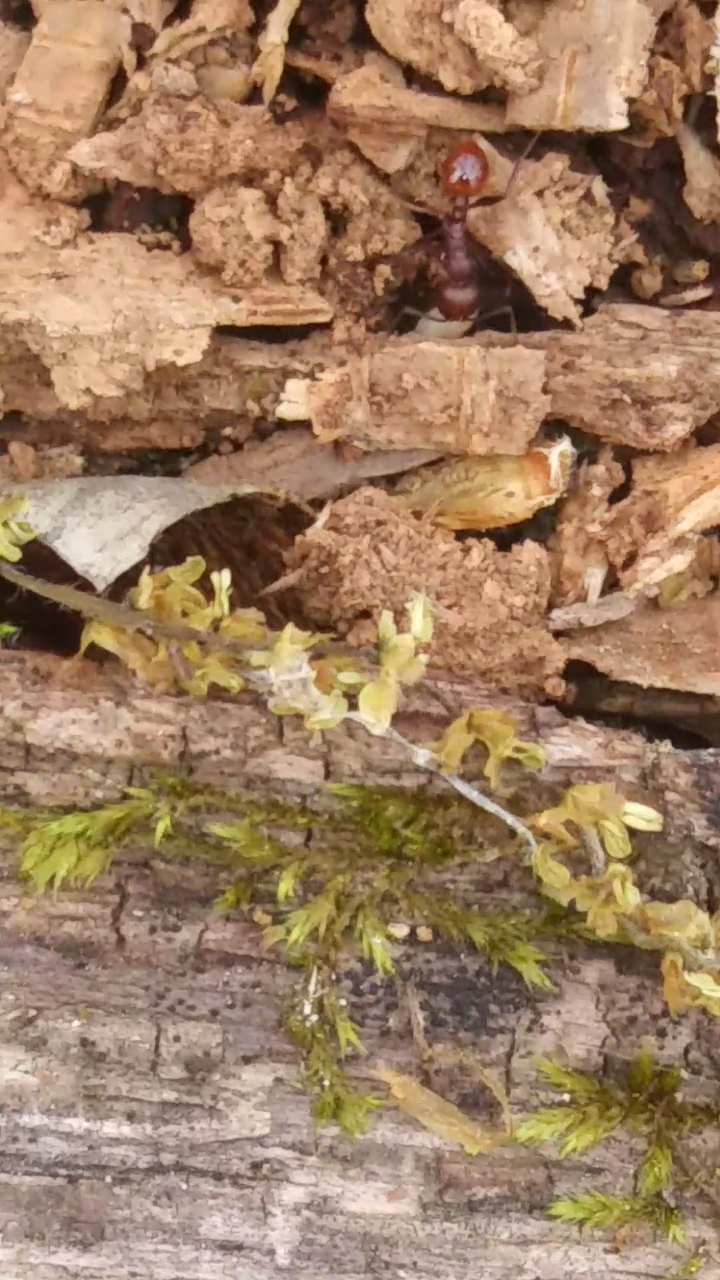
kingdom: Animalia
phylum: Arthropoda
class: Insecta
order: Hymenoptera
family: Formicidae
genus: Aphaenogaster
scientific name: Aphaenogaster tennesseensis
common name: Tennessee thread-waisted ant
